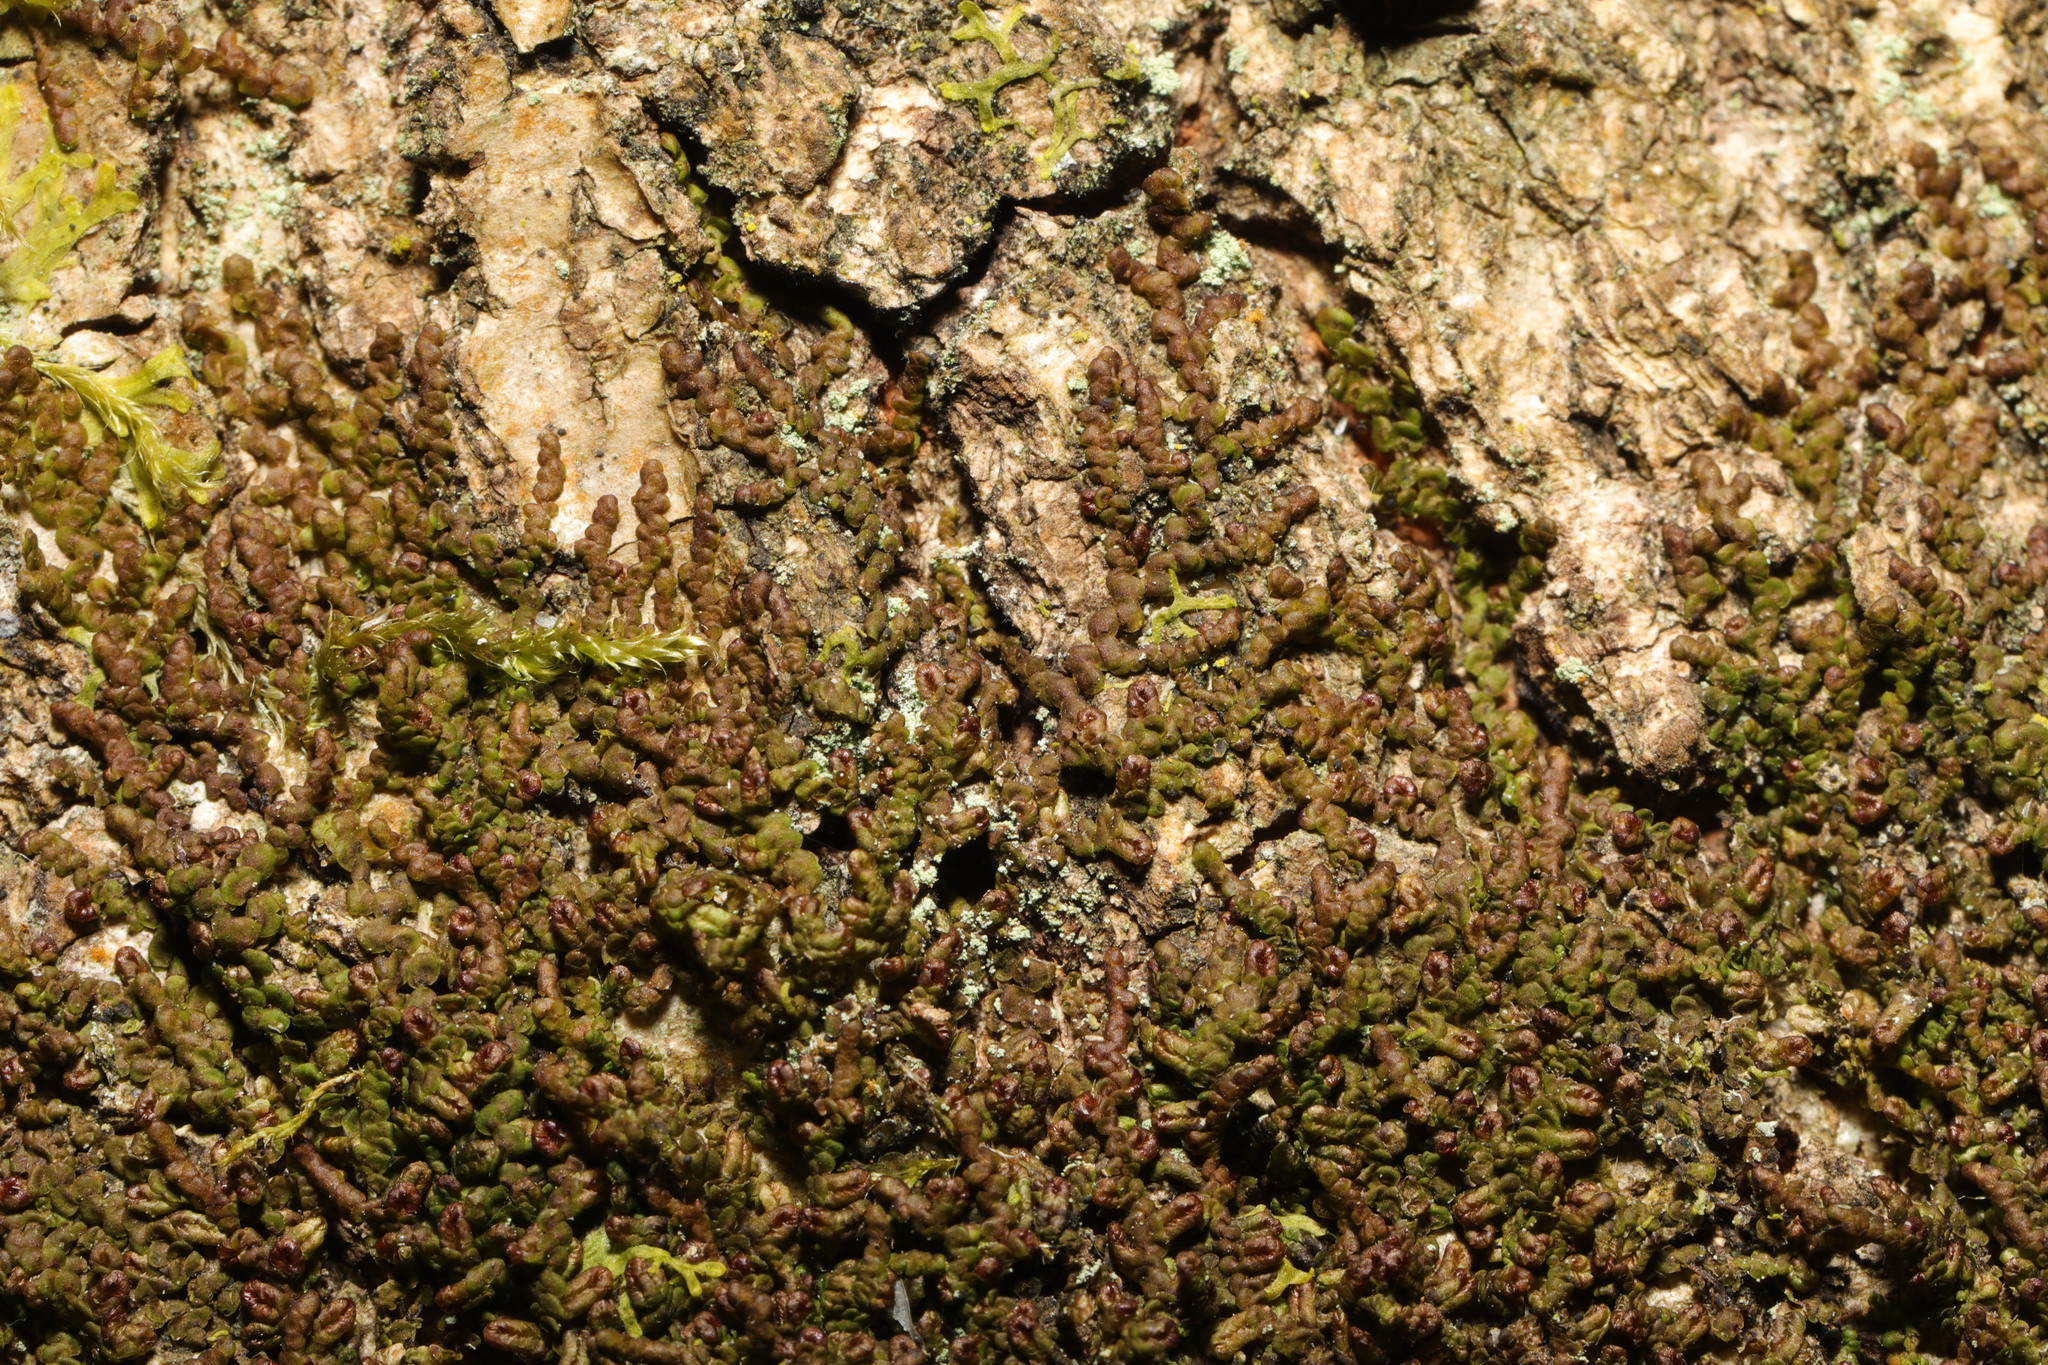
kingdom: Plantae
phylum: Marchantiophyta
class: Jungermanniopsida
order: Porellales
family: Frullaniaceae
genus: Frullania
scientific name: Frullania dilatata
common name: Dilated scalewort
